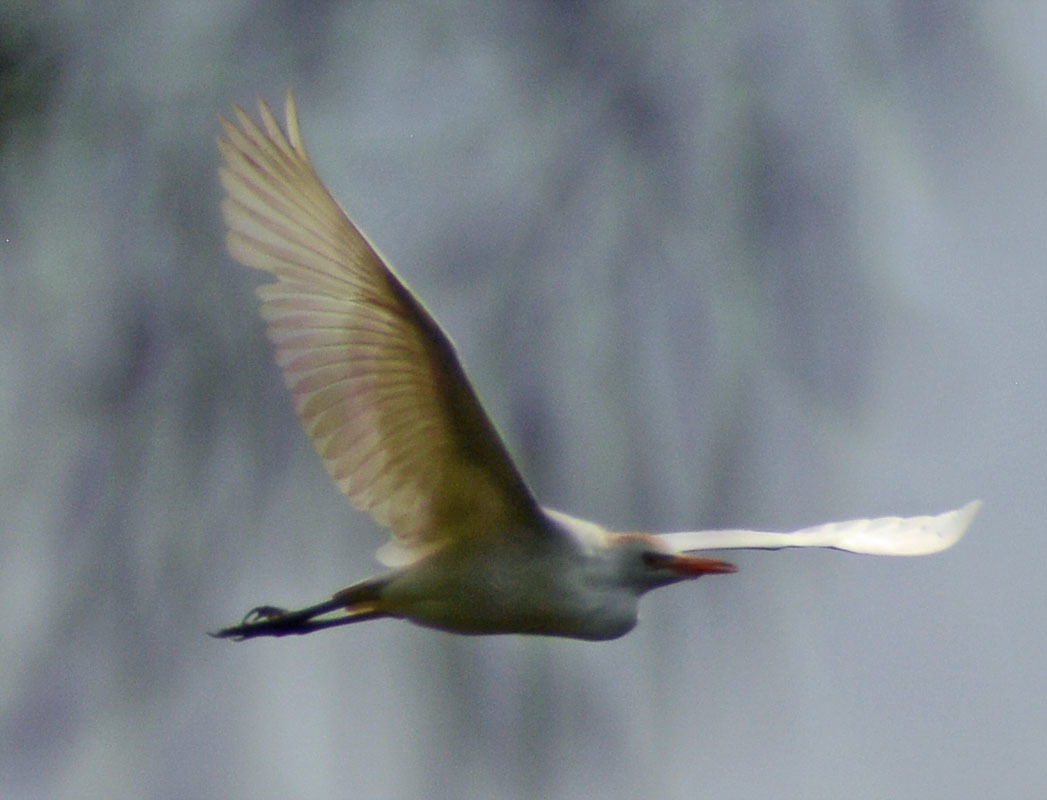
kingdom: Animalia
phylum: Chordata
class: Aves
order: Pelecaniformes
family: Ardeidae
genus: Bubulcus
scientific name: Bubulcus ibis
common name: Cattle egret
